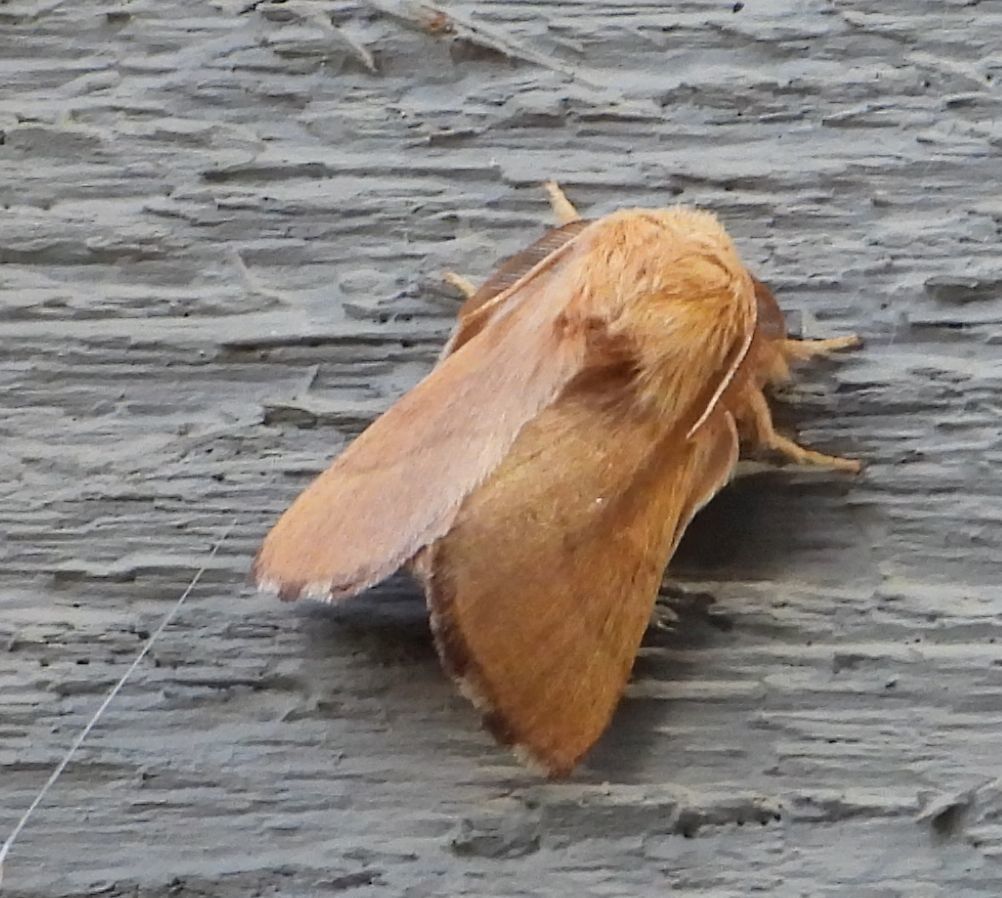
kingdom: Animalia
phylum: Arthropoda
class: Insecta
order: Lepidoptera
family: Lasiocampidae
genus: Malacosoma
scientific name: Malacosoma disstria
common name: Forest tent caterpillar
